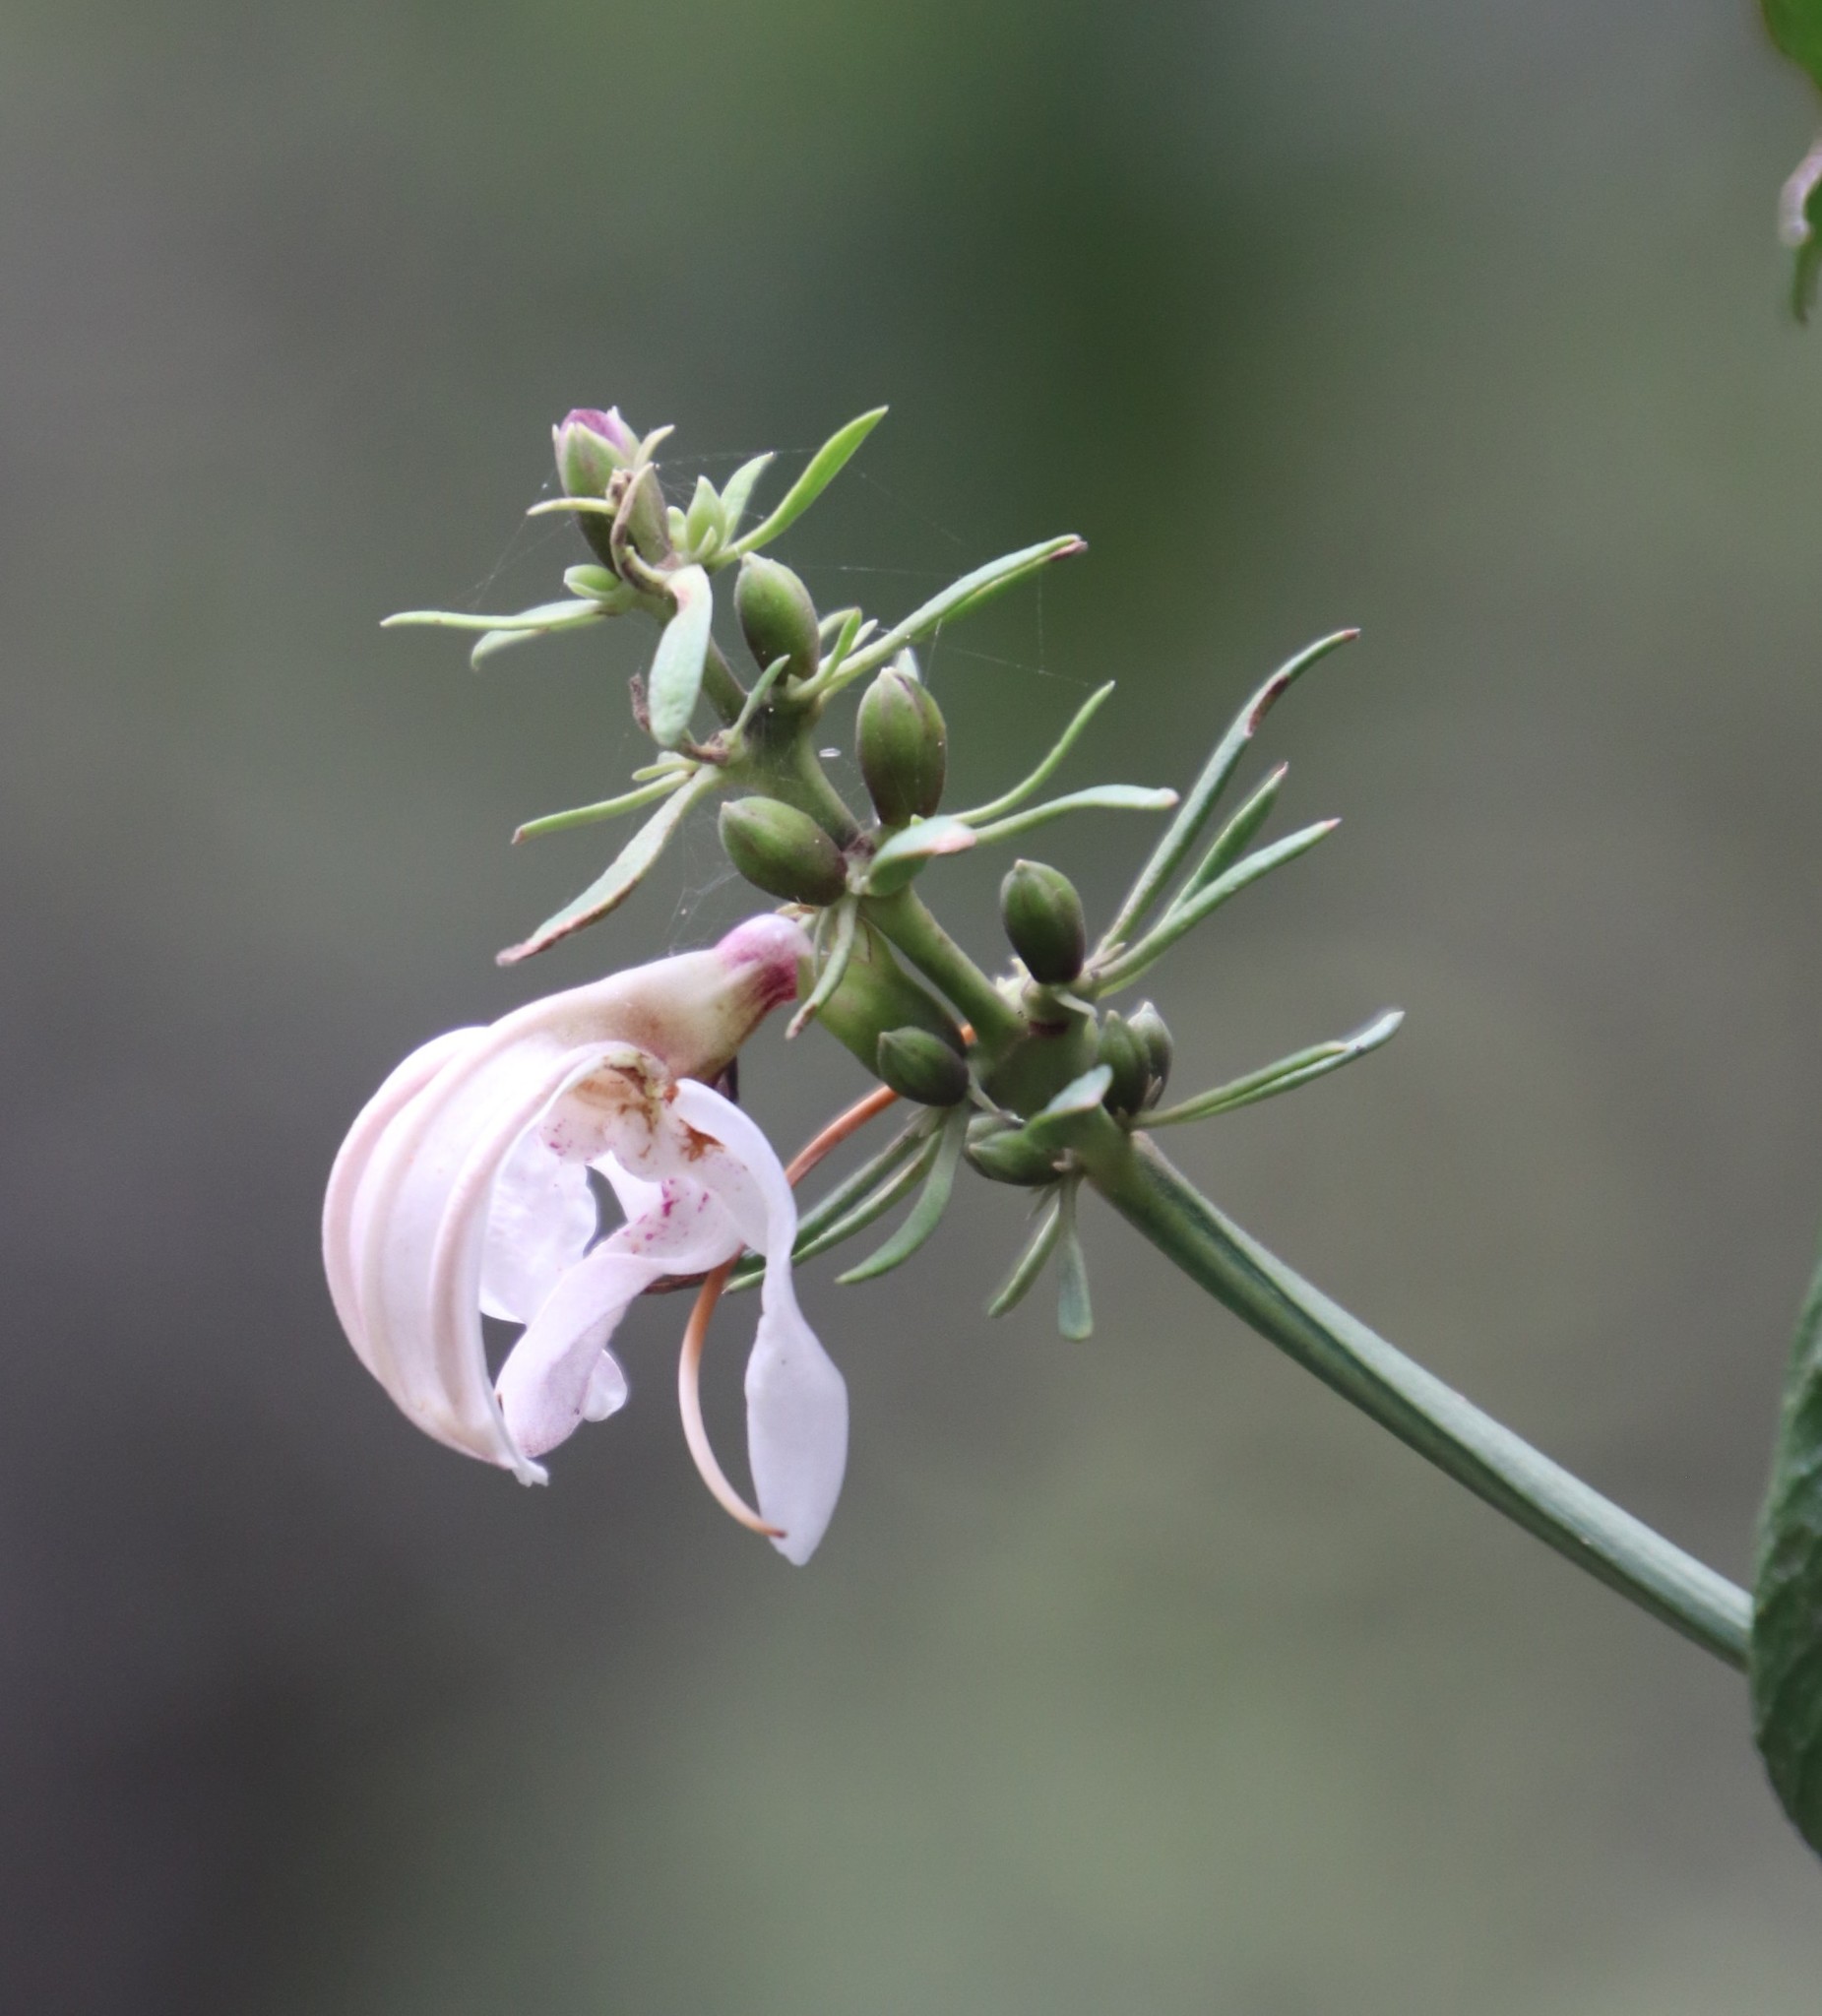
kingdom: Plantae
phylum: Tracheophyta
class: Magnoliopsida
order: Lamiales
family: Acanthaceae
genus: Justicia
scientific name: Justicia adhatodoides
